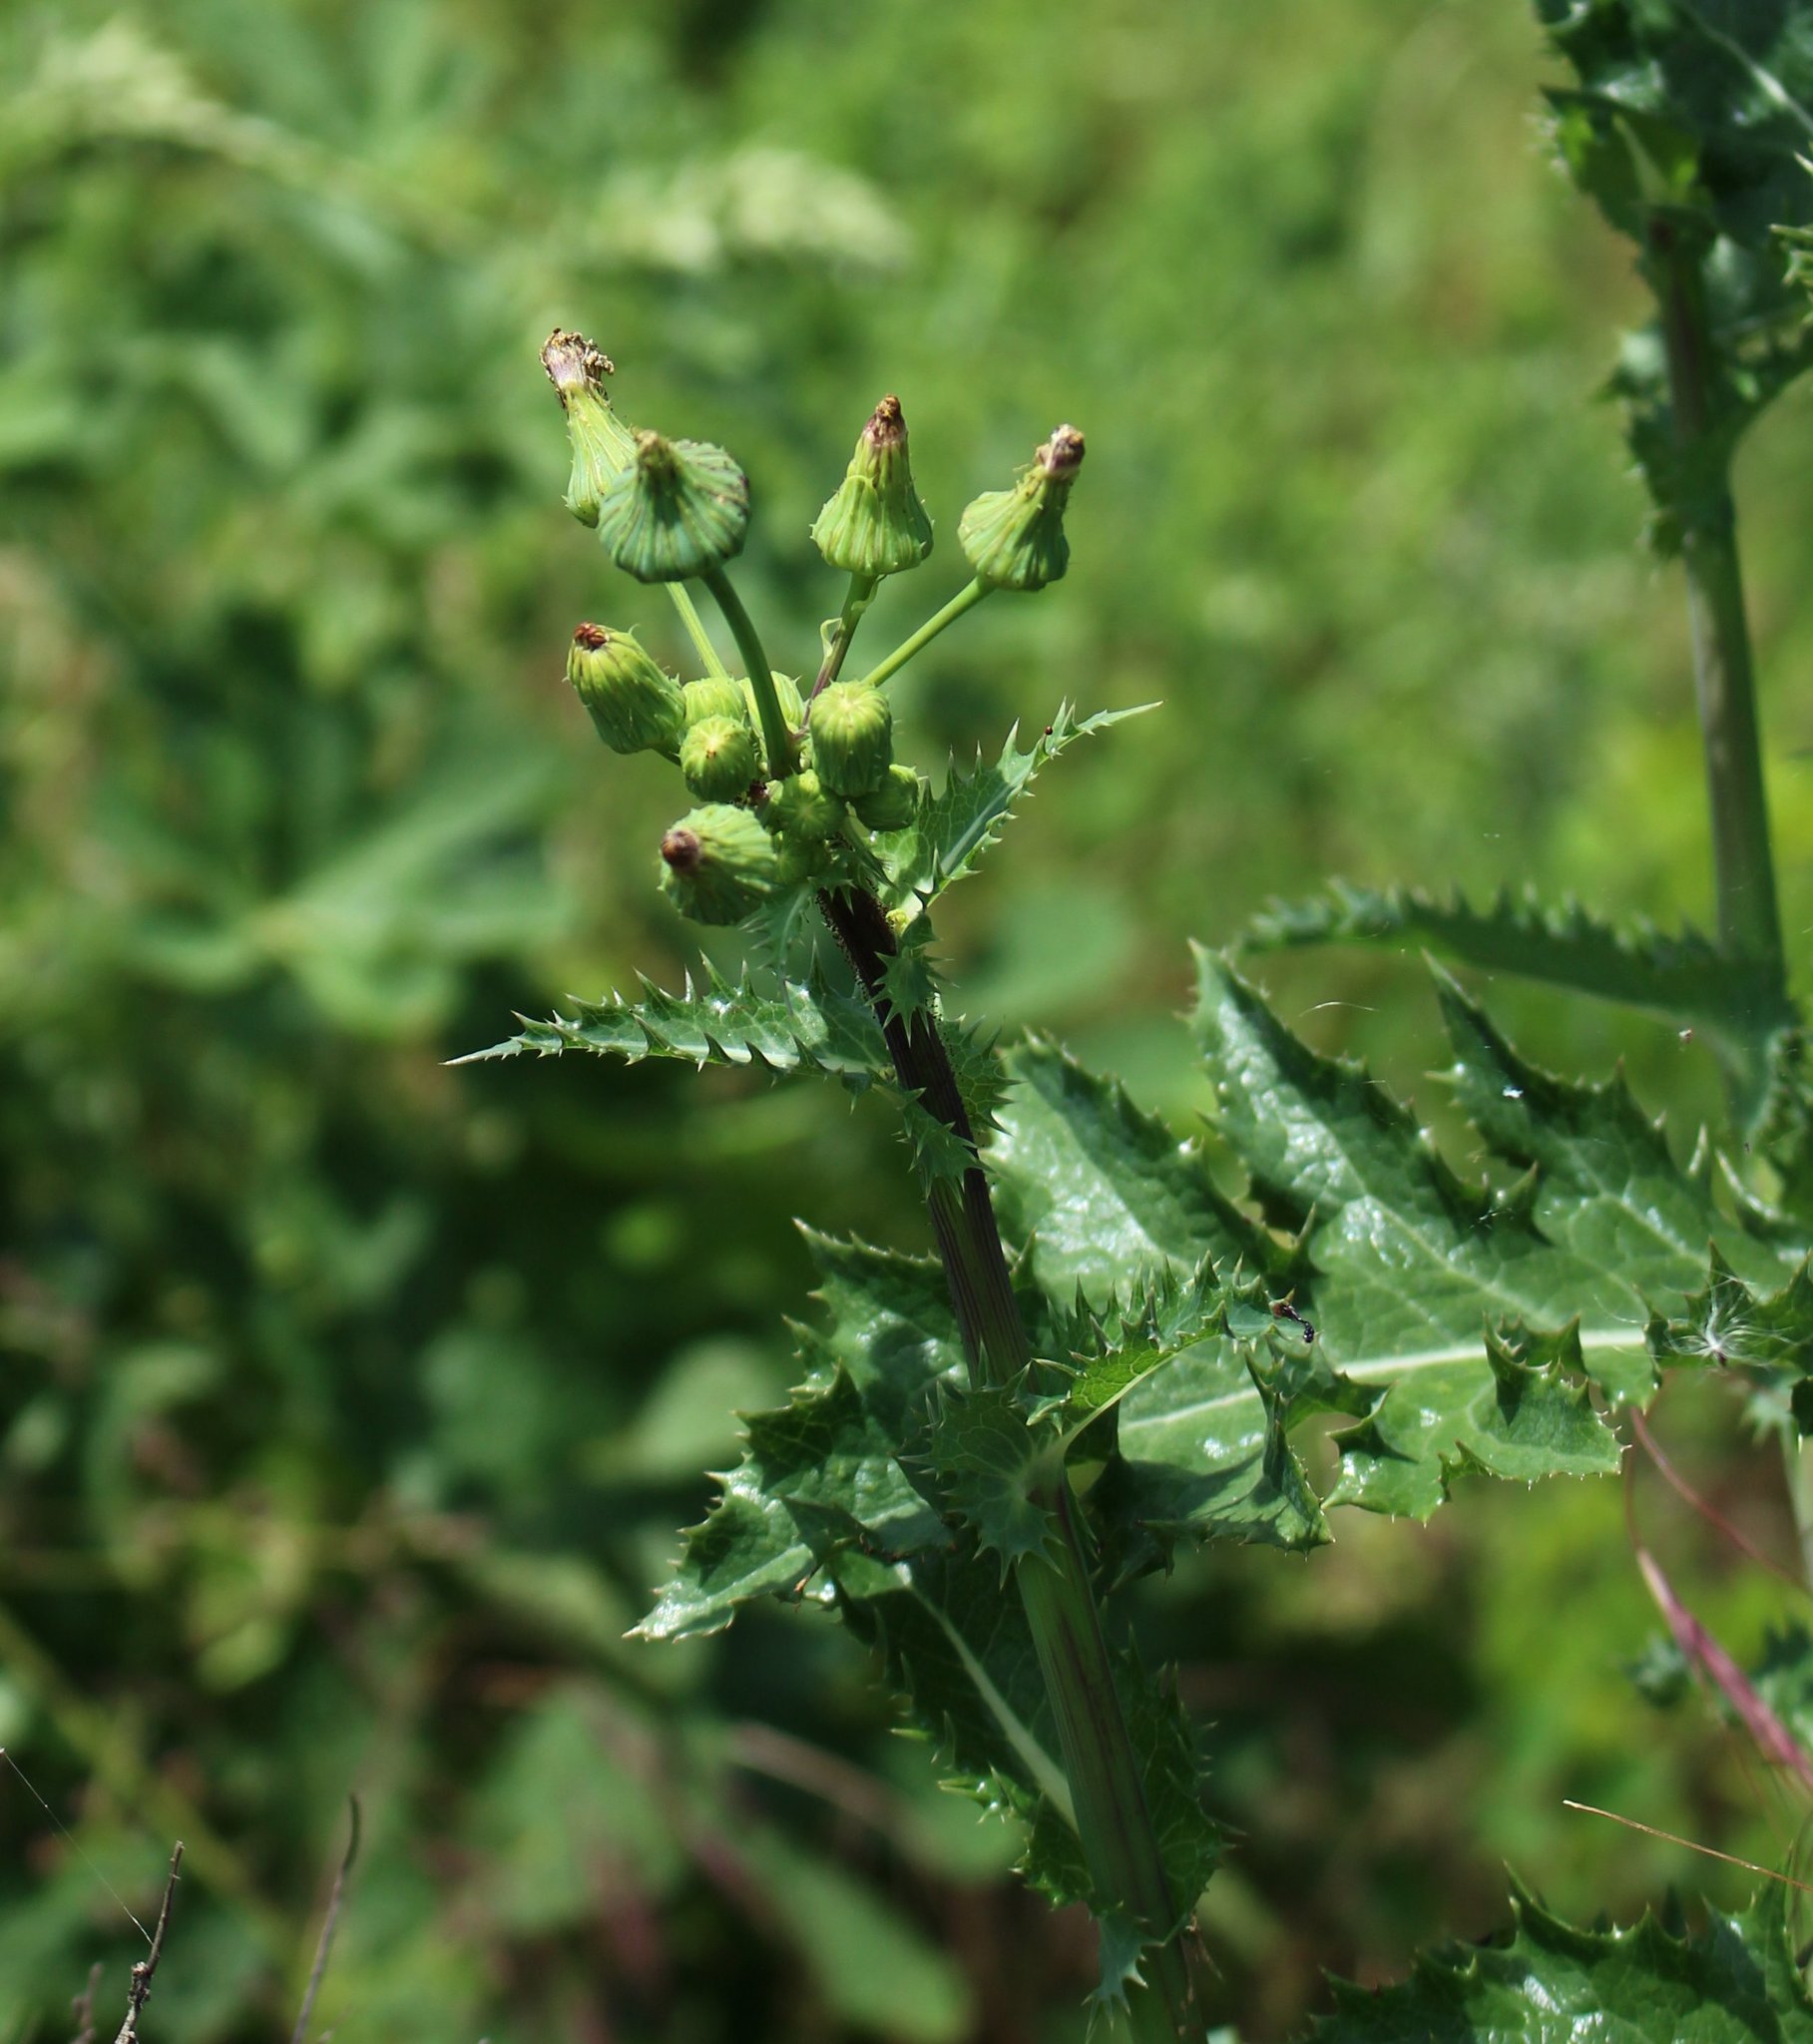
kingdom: Plantae
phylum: Tracheophyta
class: Magnoliopsida
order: Asterales
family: Asteraceae
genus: Sonchus
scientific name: Sonchus asper
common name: Prickly sow-thistle
